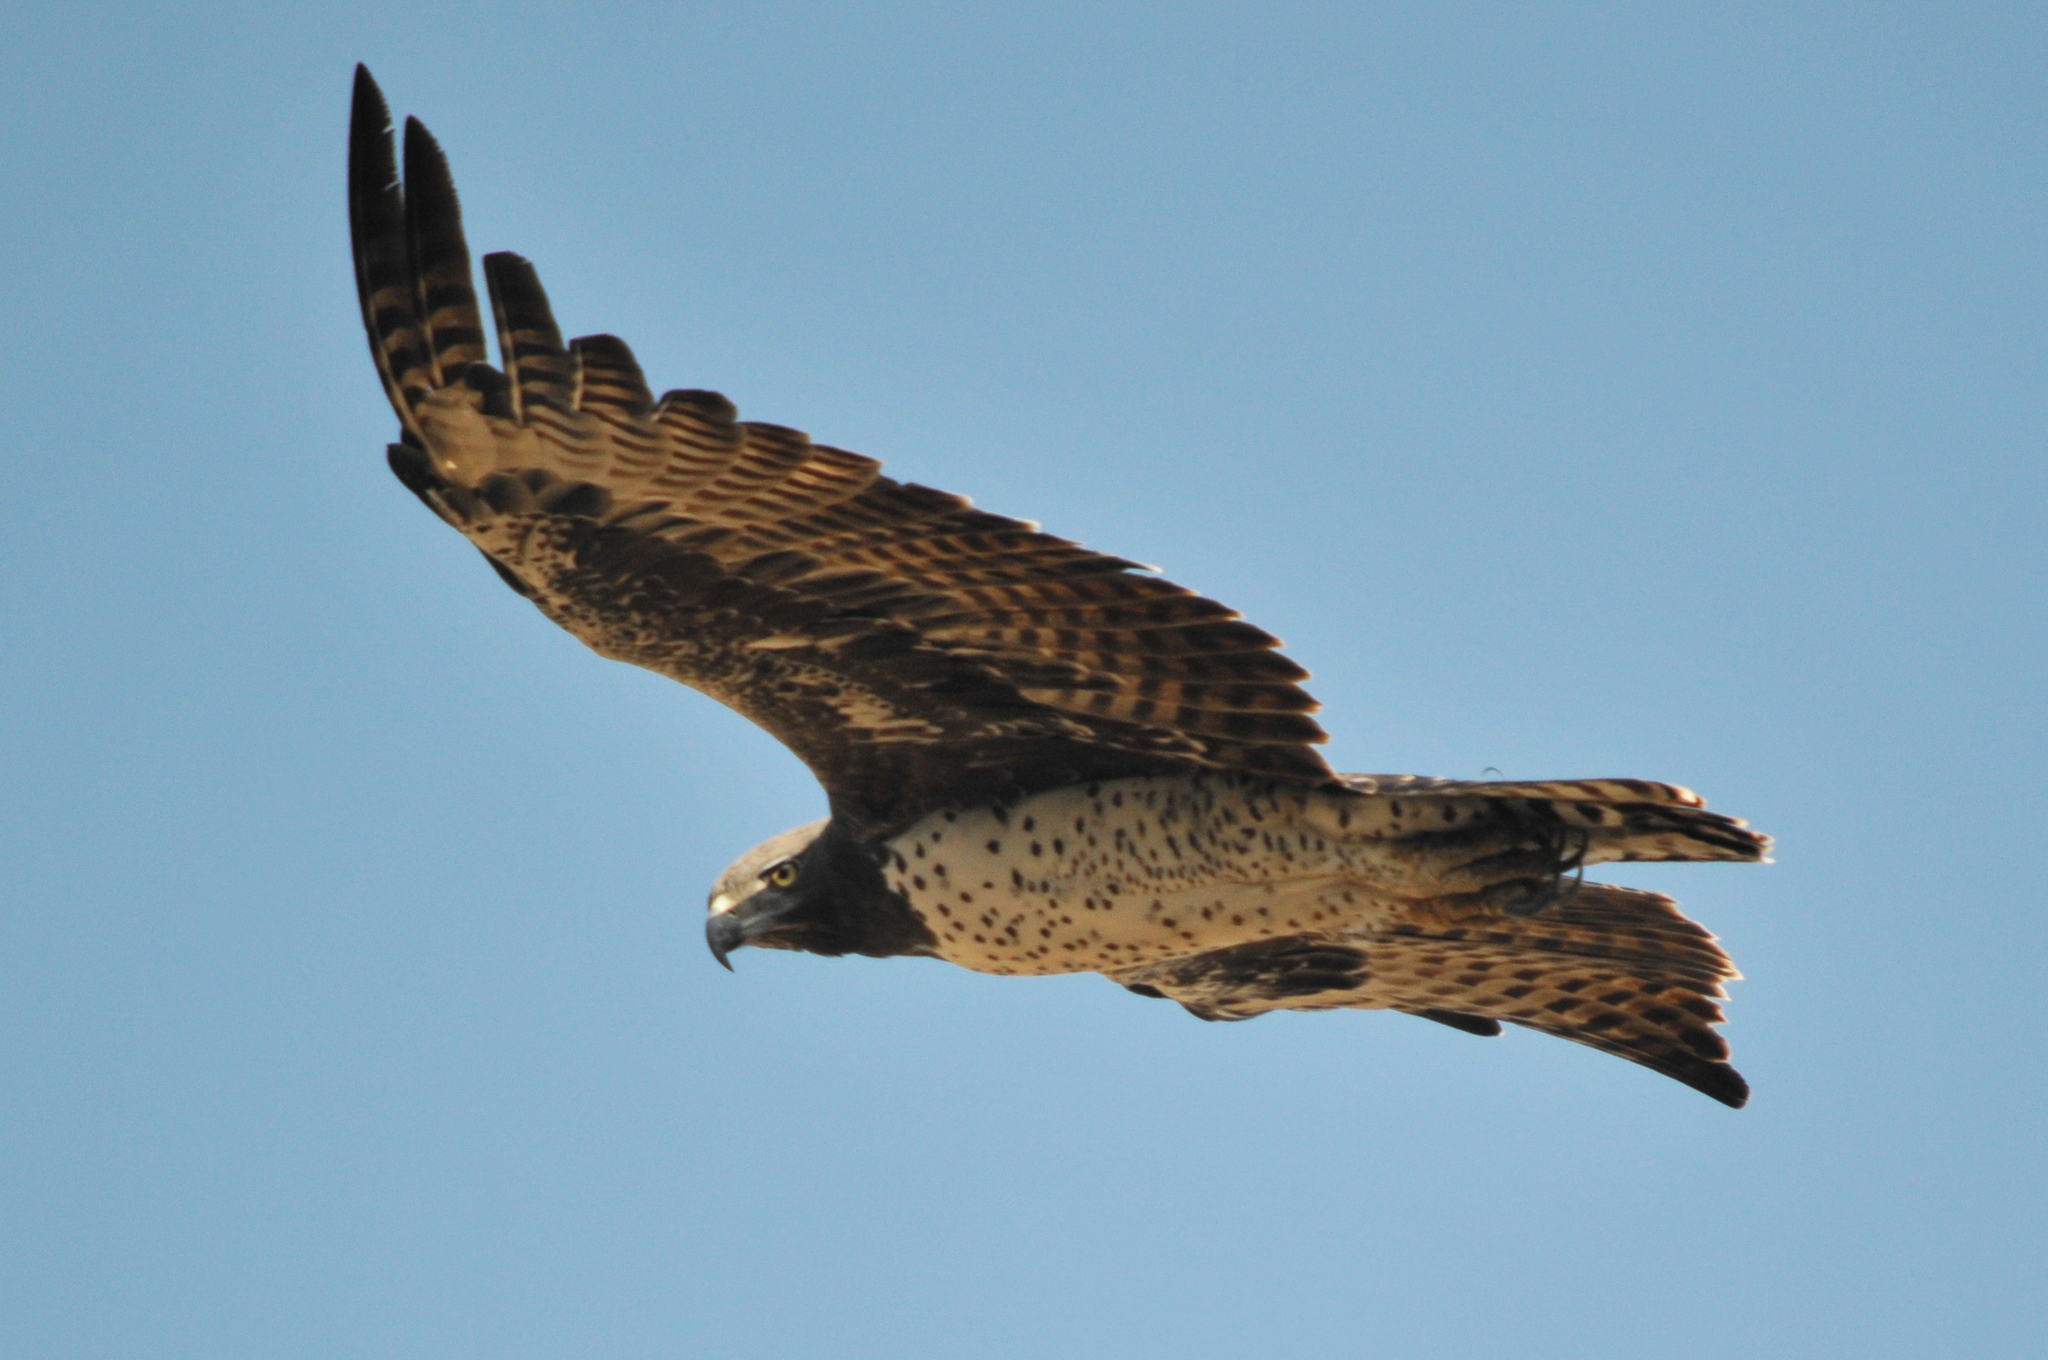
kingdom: Animalia
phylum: Chordata
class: Aves
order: Accipitriformes
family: Accipitridae
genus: Polemaetus
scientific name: Polemaetus bellicosus
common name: Martial eagle
